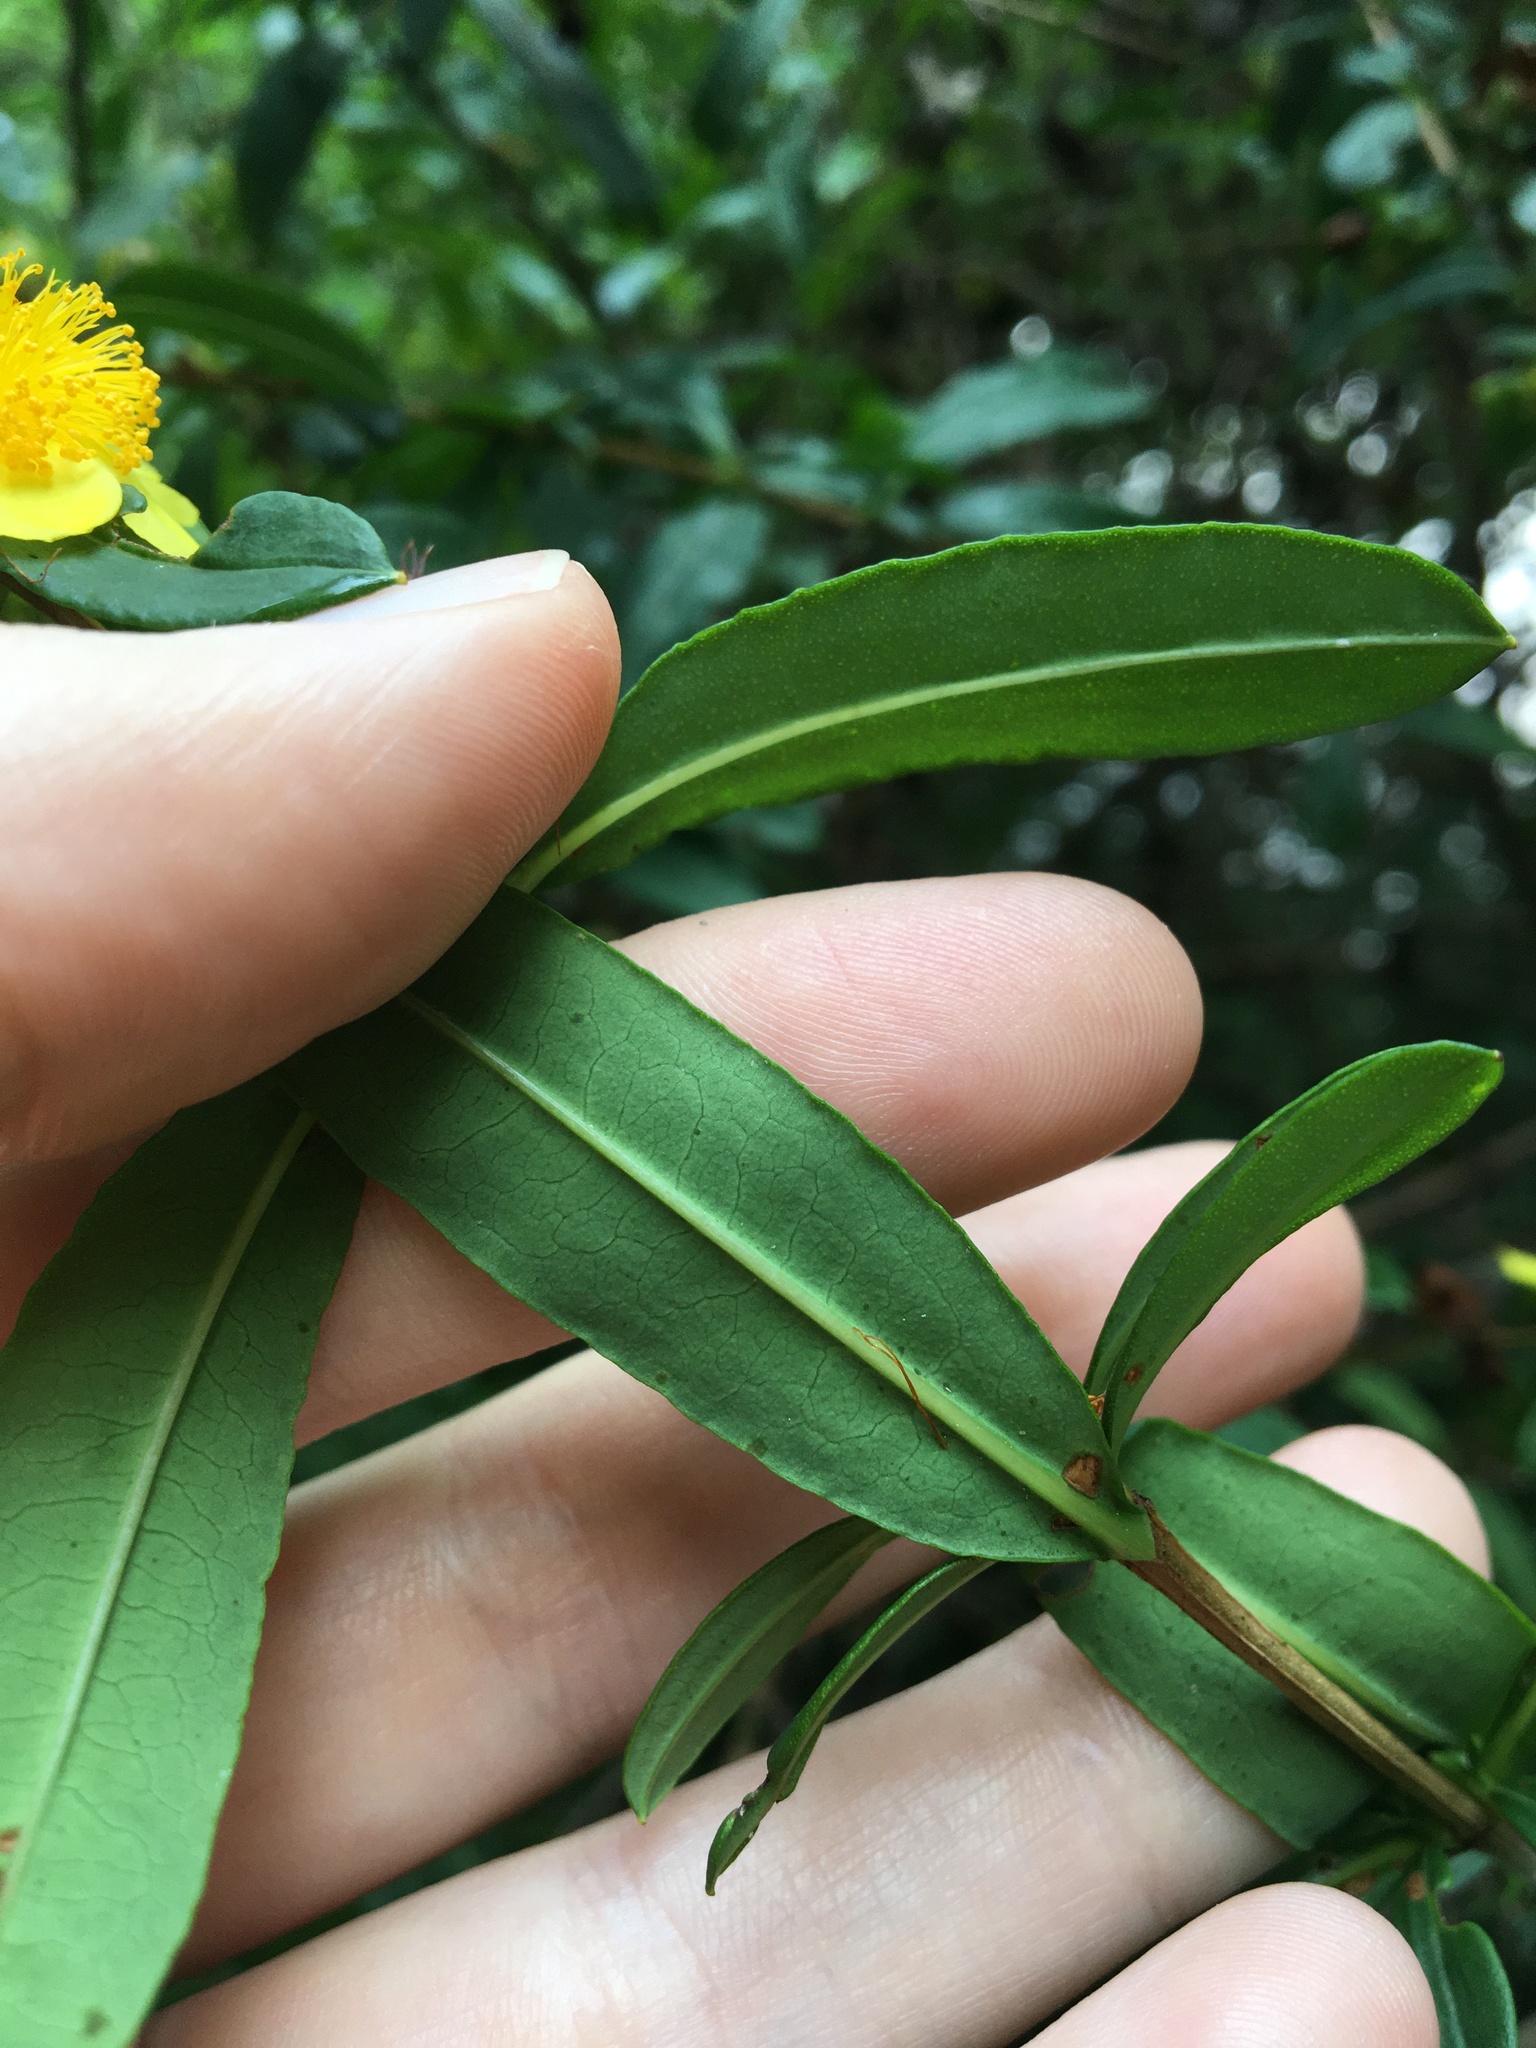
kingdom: Plantae
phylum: Tracheophyta
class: Magnoliopsida
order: Malpighiales
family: Hypericaceae
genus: Hypericum
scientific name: Hypericum prolificum
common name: Shrubby st. john's-wort
